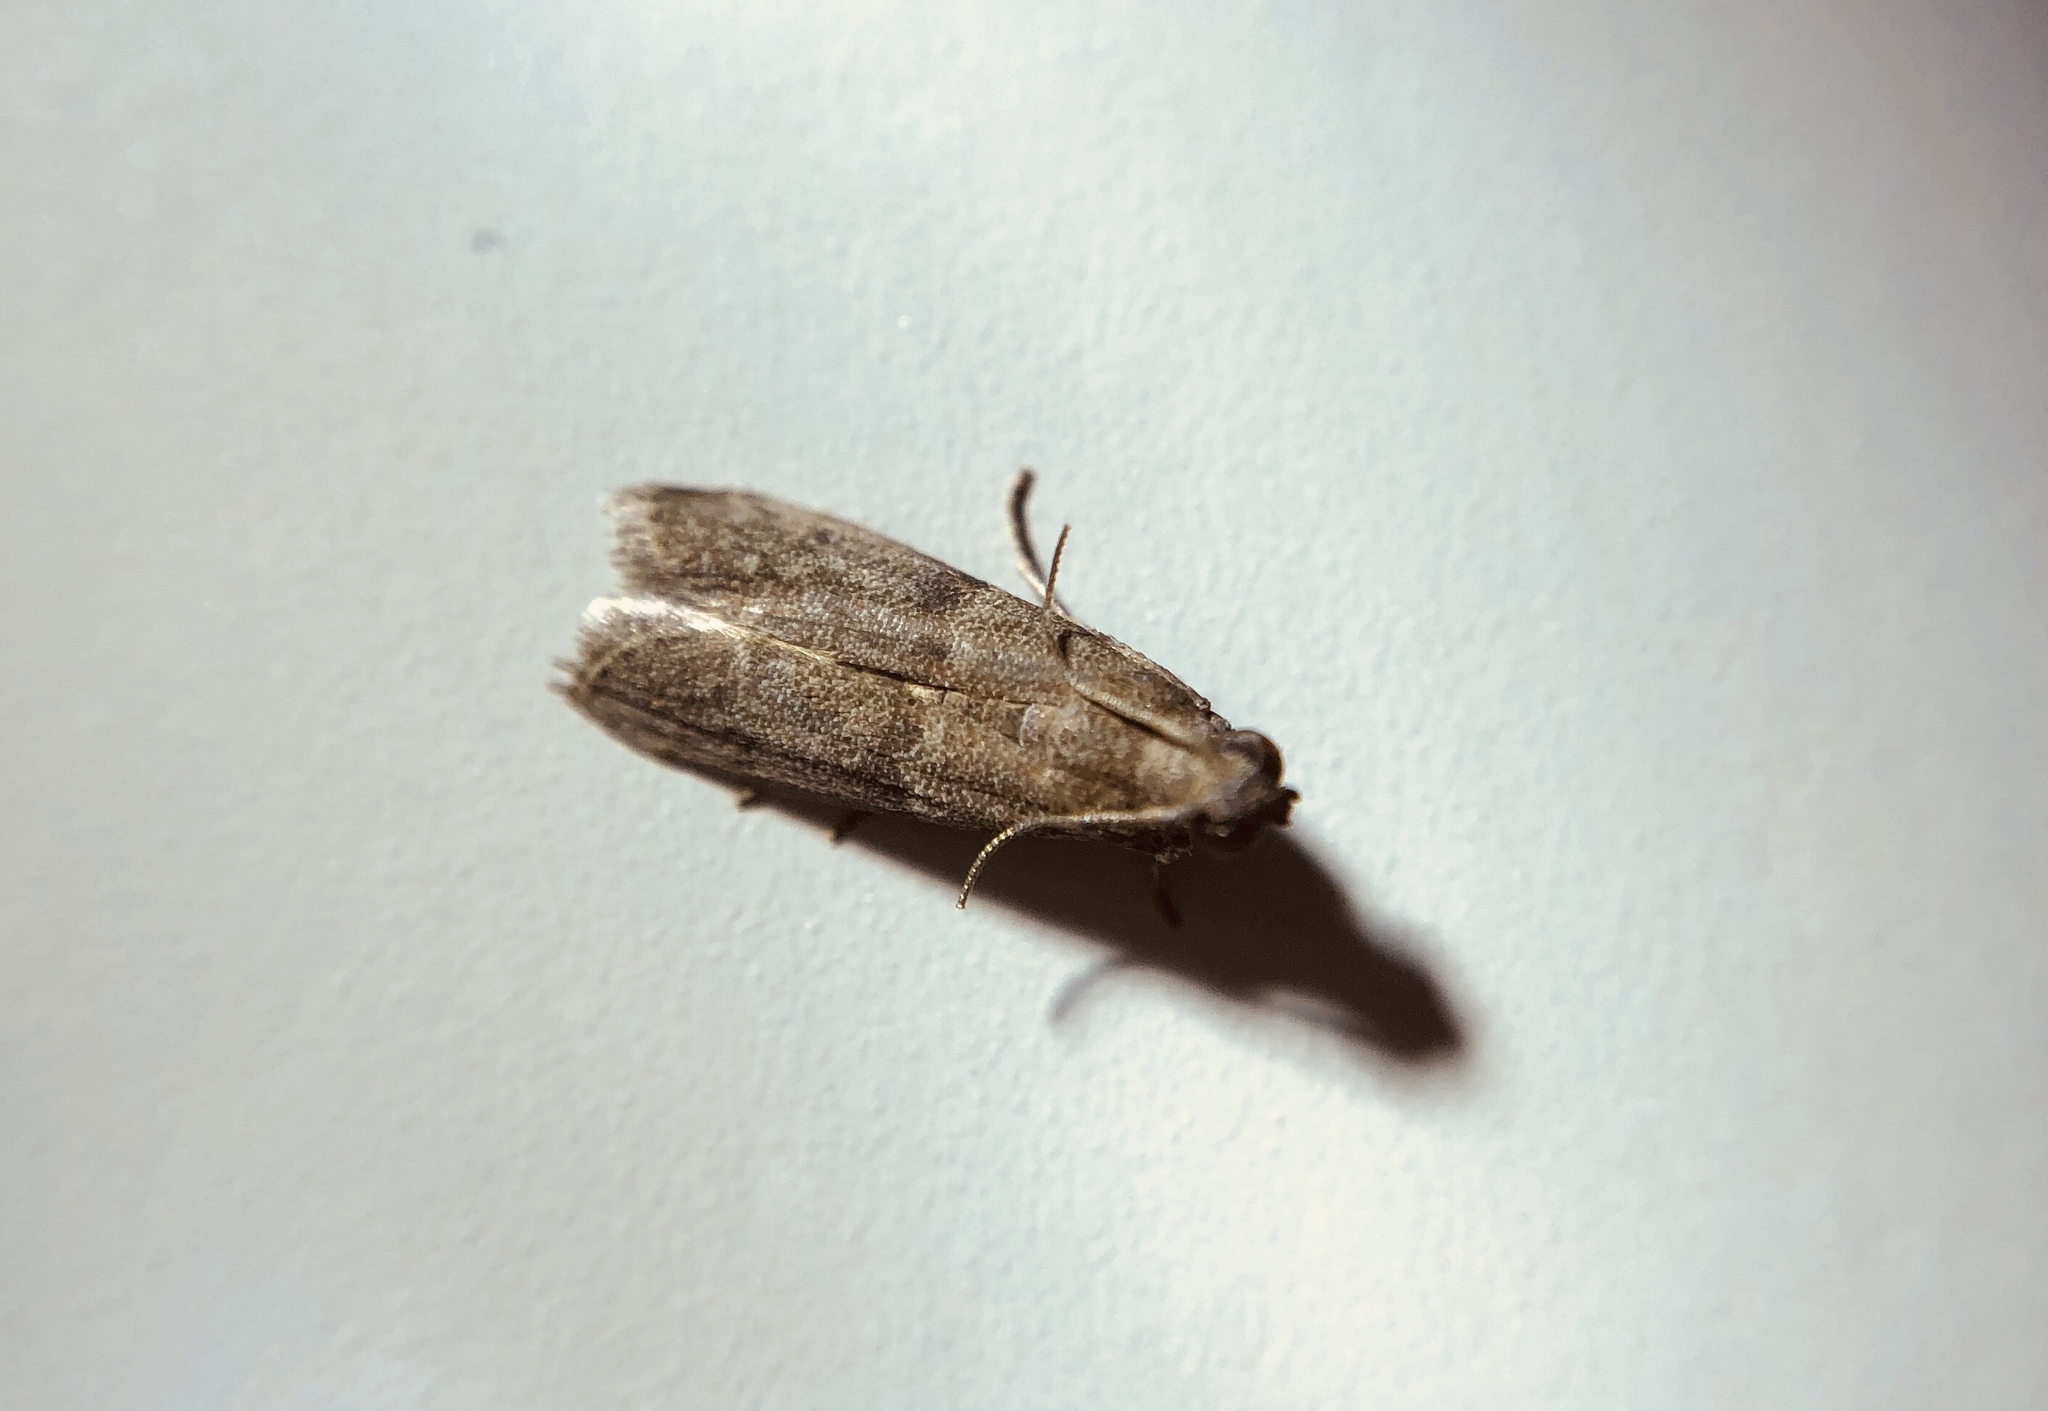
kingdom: Animalia
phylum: Arthropoda
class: Insecta
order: Lepidoptera
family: Tineidae
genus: Phereoeca
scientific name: Phereoeca uterella
